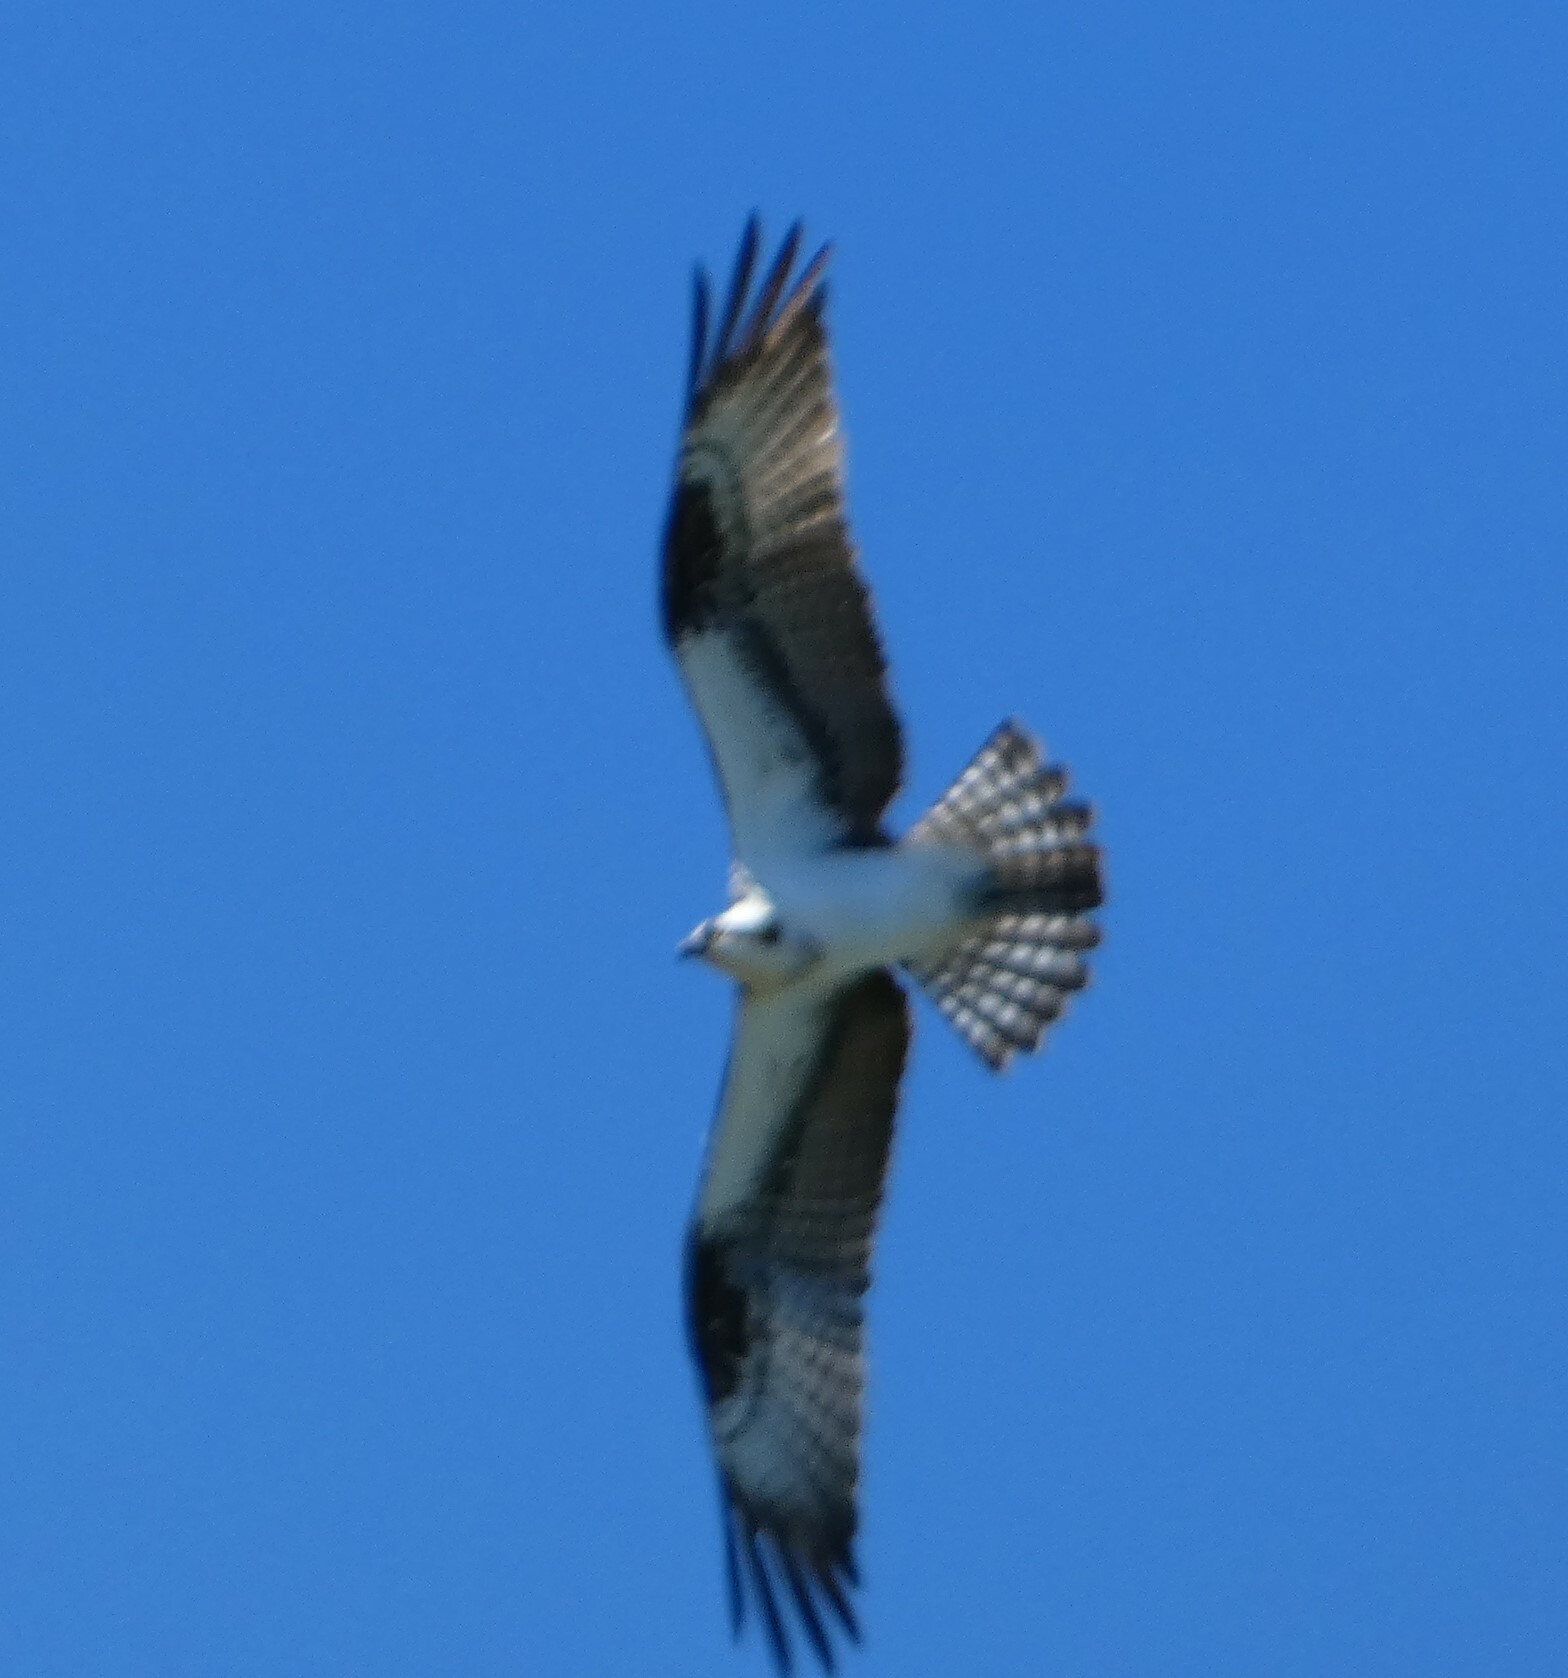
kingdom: Animalia
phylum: Chordata
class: Aves
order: Accipitriformes
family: Pandionidae
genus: Pandion
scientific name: Pandion haliaetus
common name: Osprey
